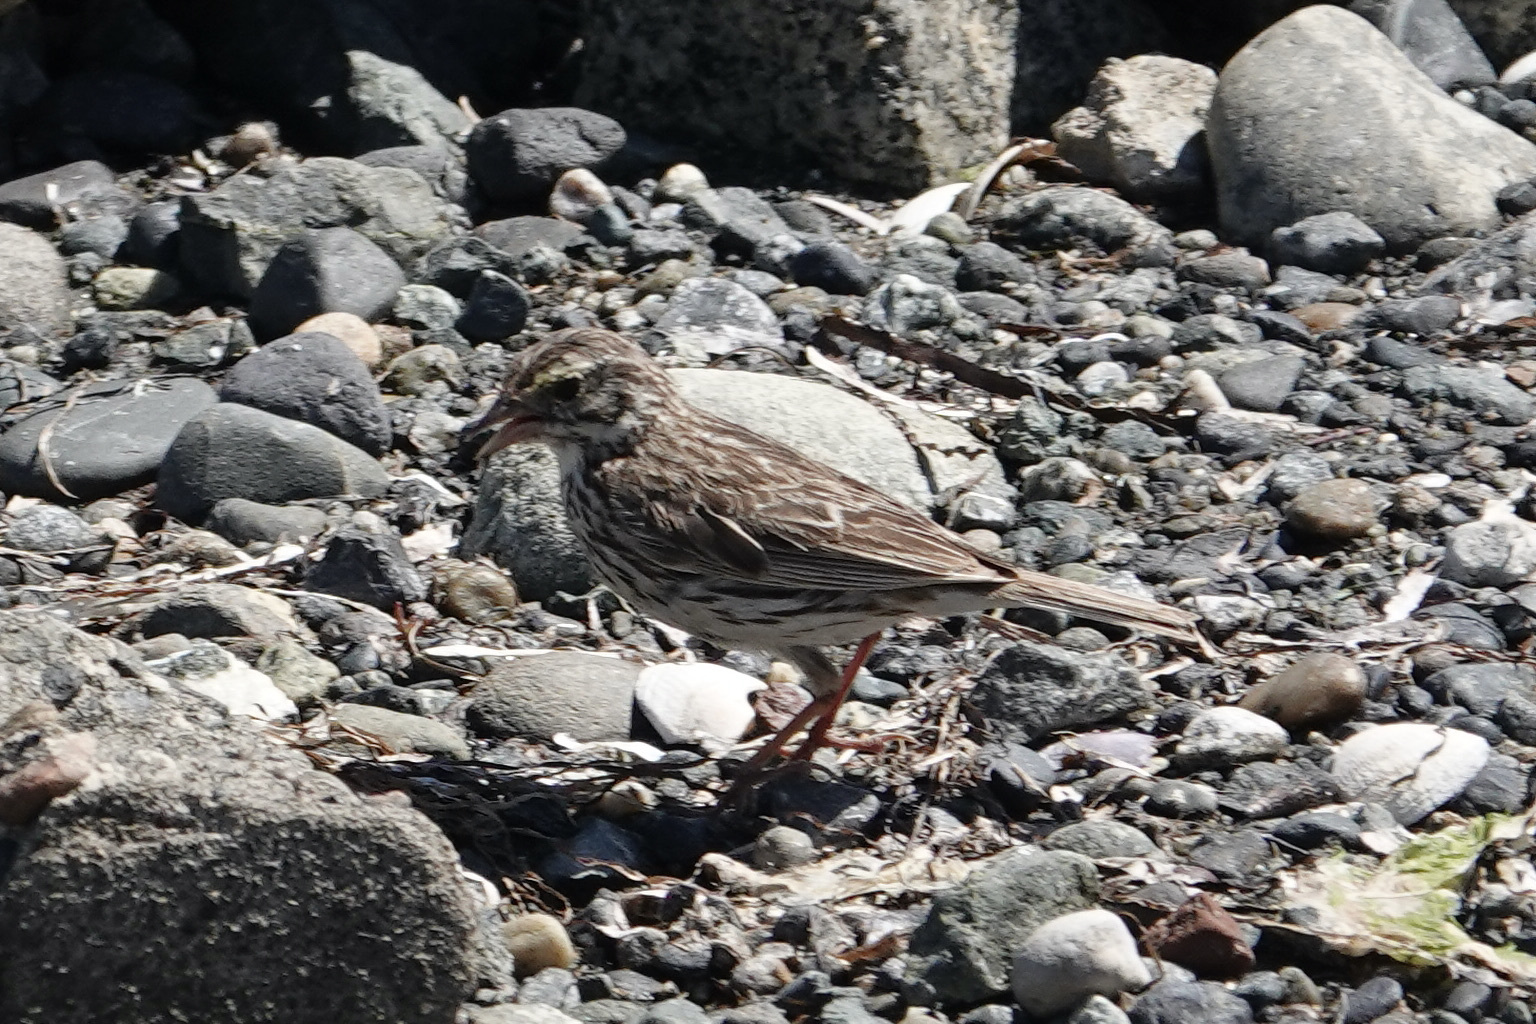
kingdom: Animalia
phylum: Chordata
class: Aves
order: Passeriformes
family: Passerellidae
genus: Passerculus
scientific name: Passerculus sandwichensis
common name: Savannah sparrow
